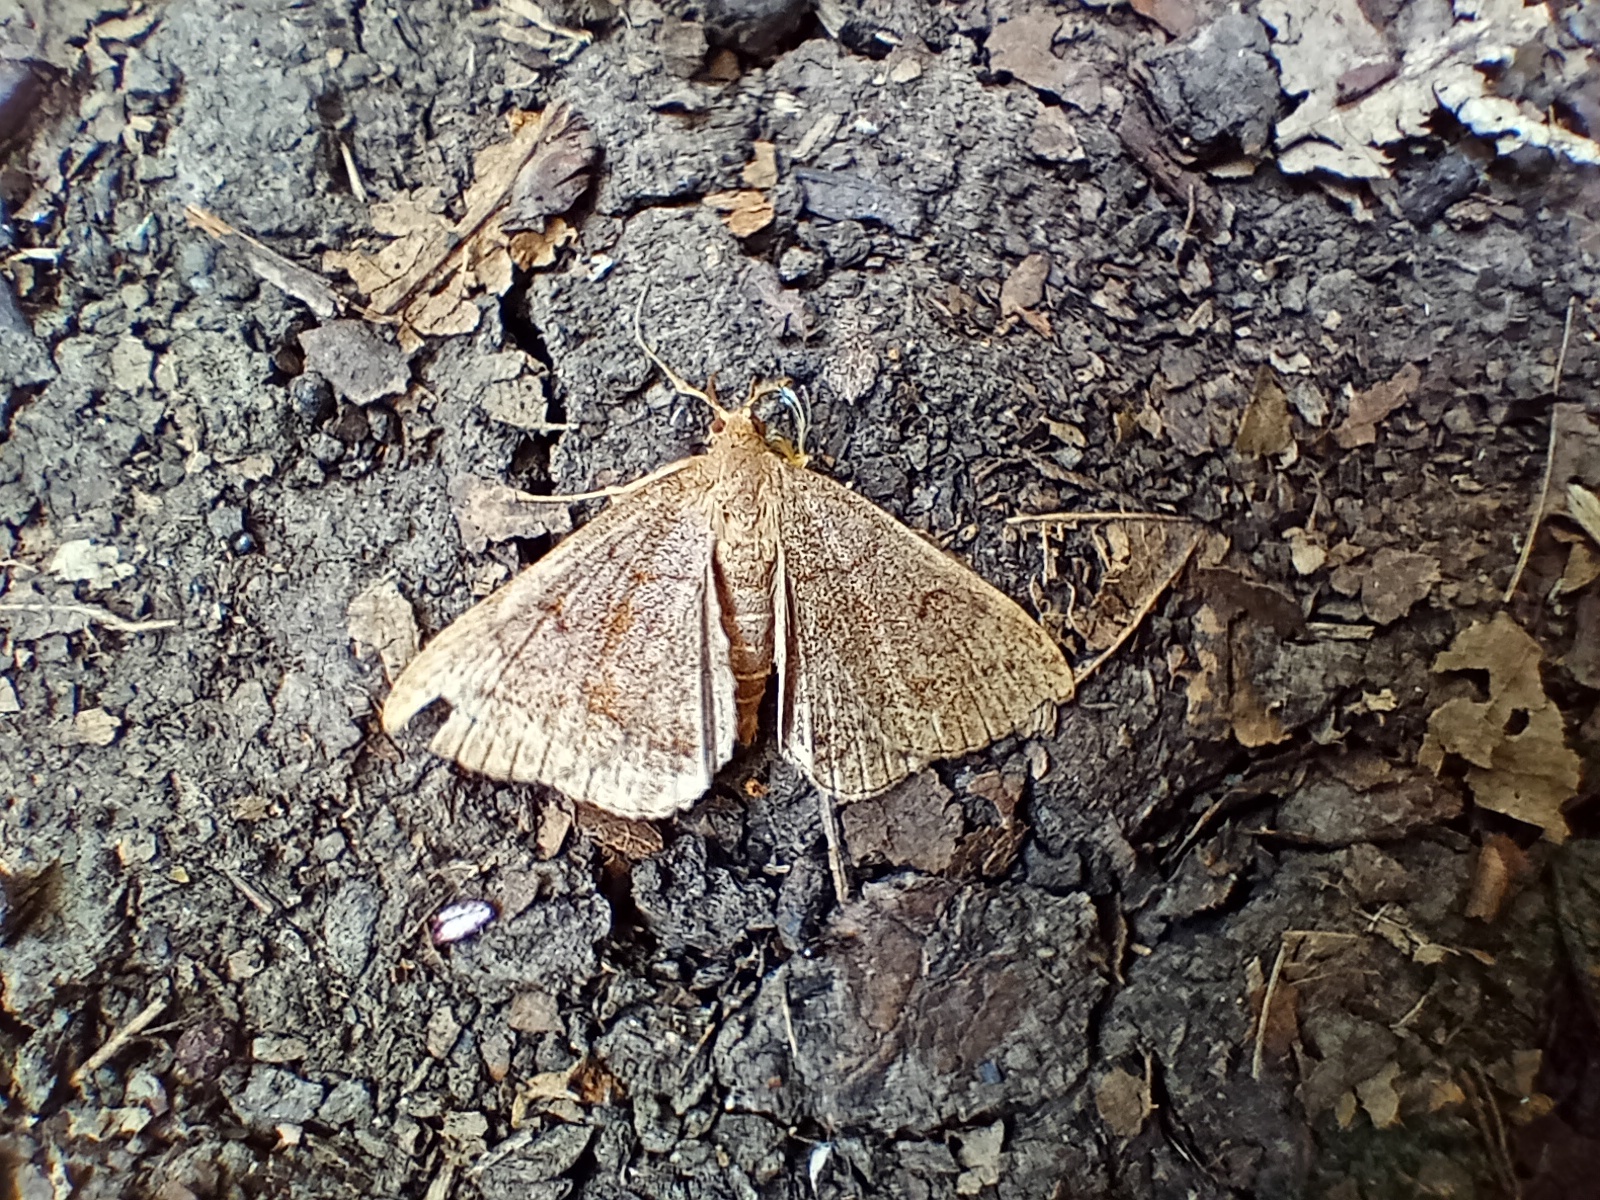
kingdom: Animalia
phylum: Arthropoda
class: Insecta
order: Lepidoptera
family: Erebidae
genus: Zanclognatha
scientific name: Zanclognatha lunalis
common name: Jubilee fan-foot
